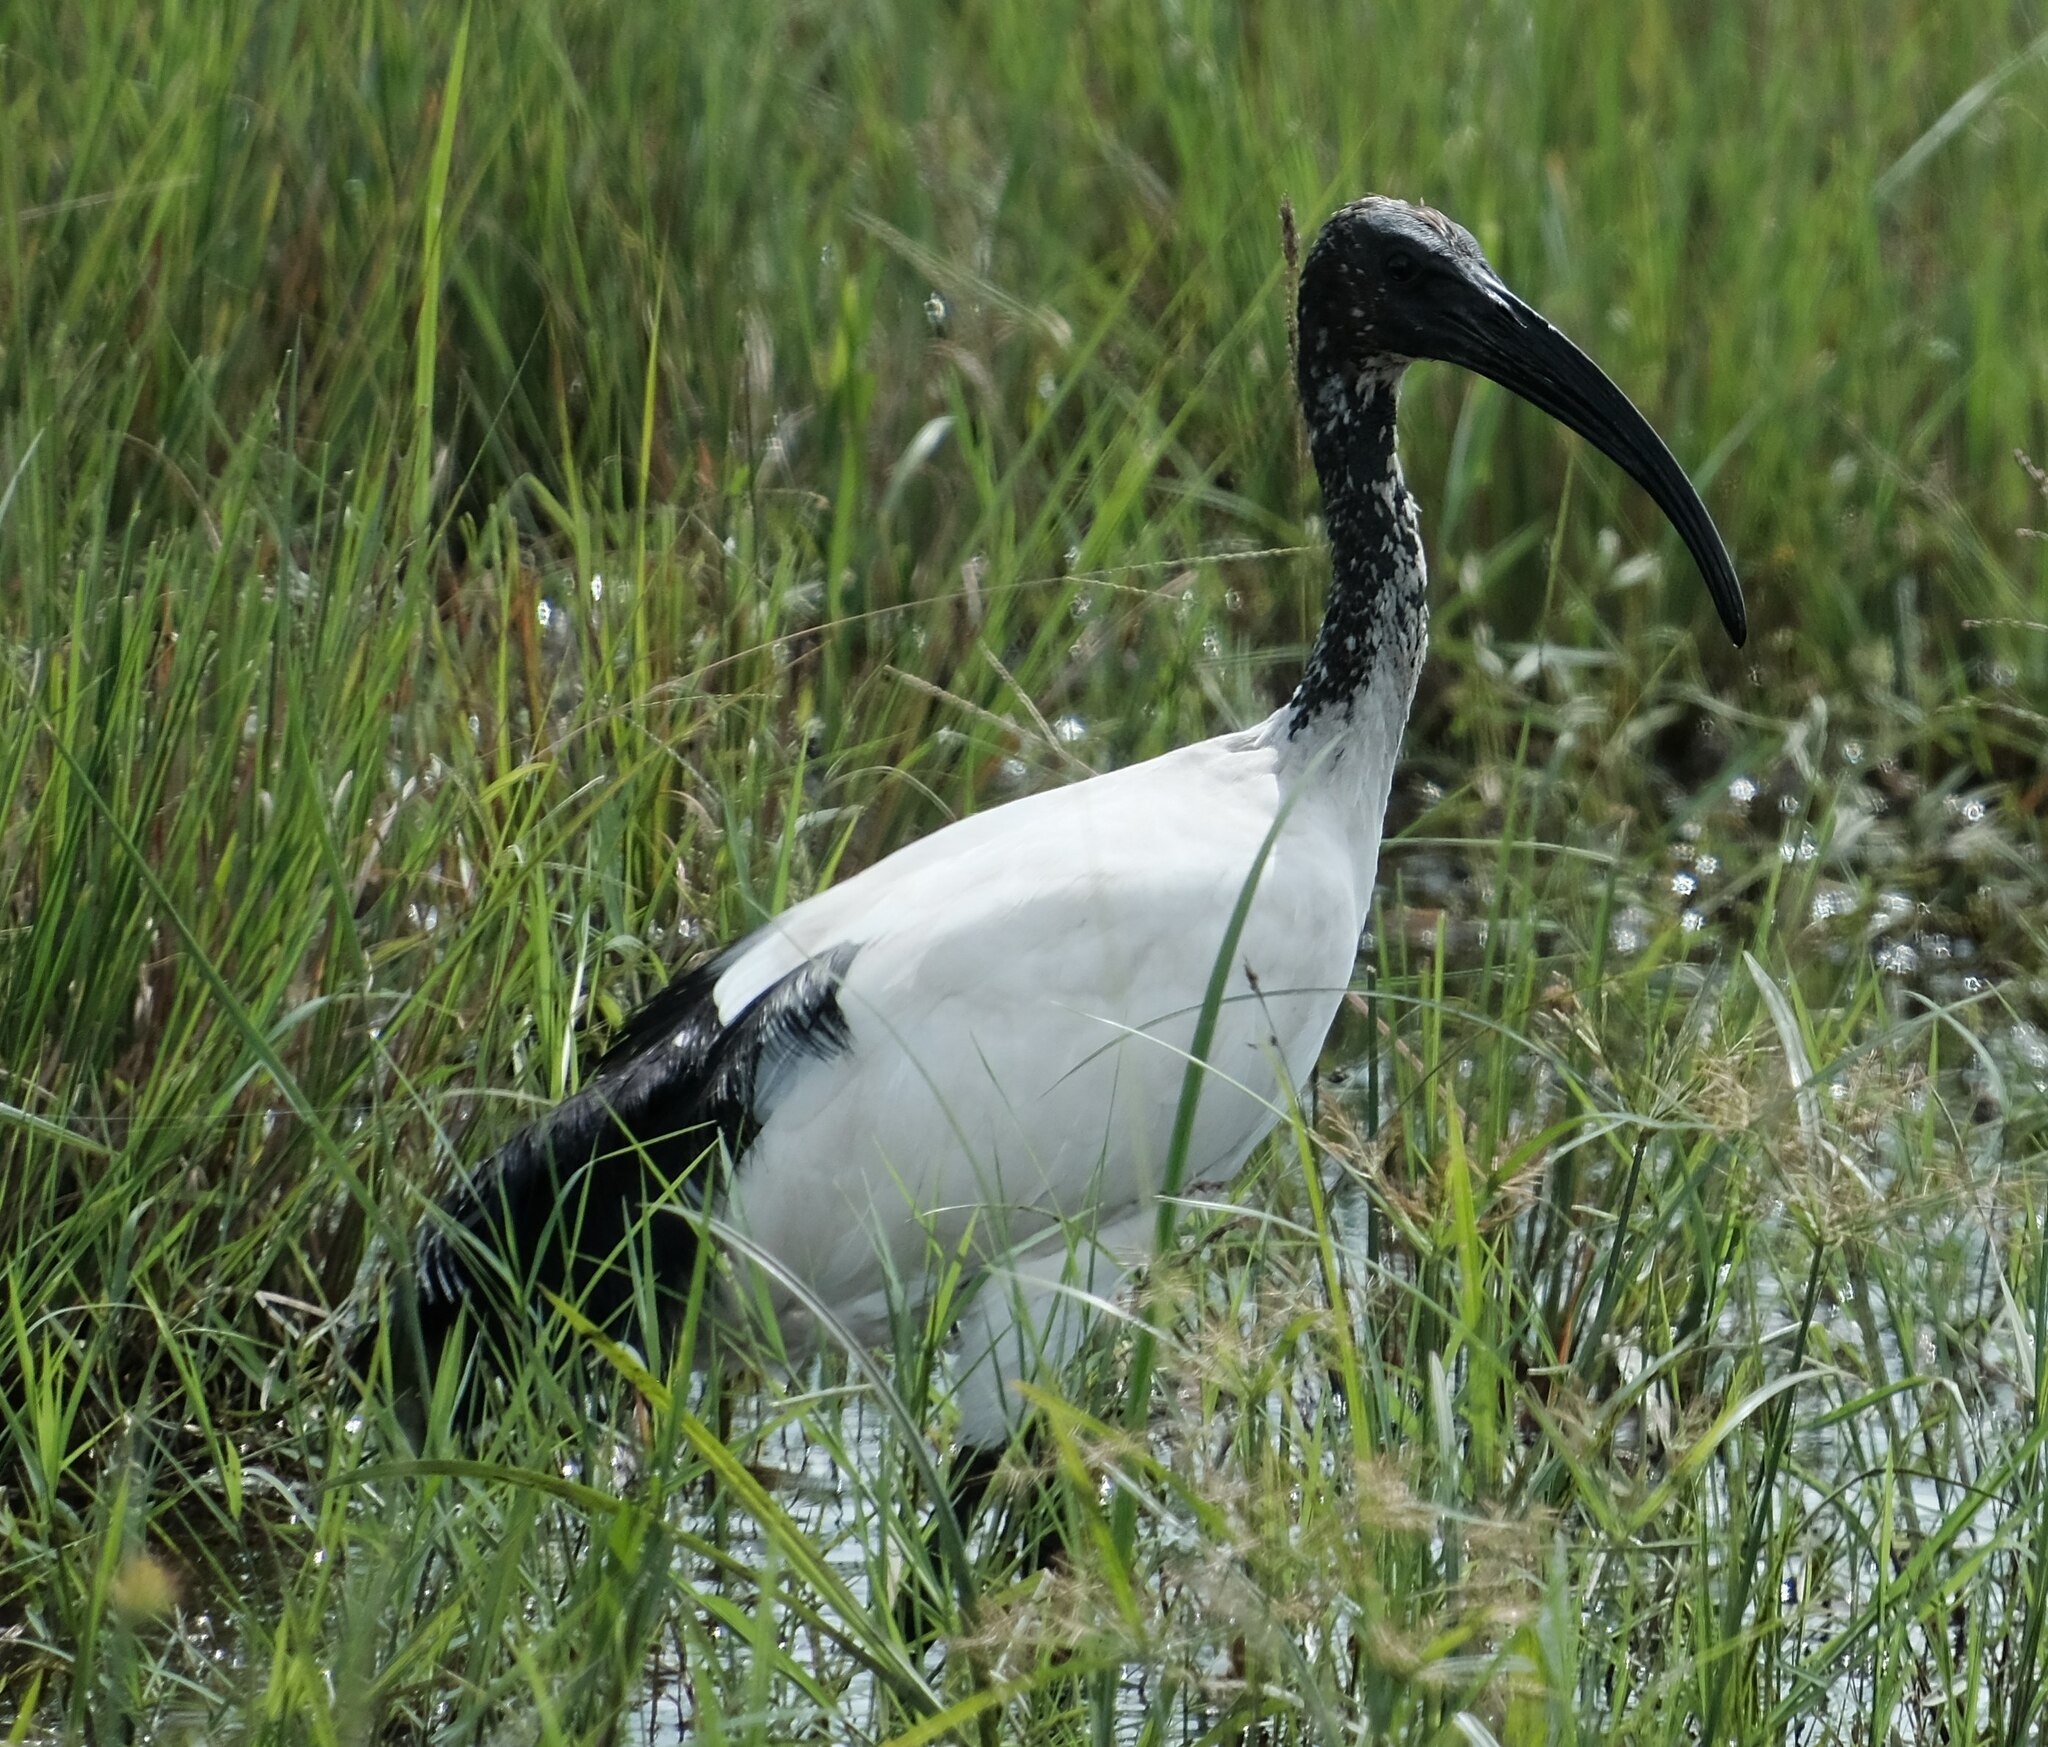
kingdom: Animalia
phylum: Chordata
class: Aves
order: Pelecaniformes
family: Threskiornithidae
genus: Threskiornis
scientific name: Threskiornis aethiopicus
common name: Sacred ibis
